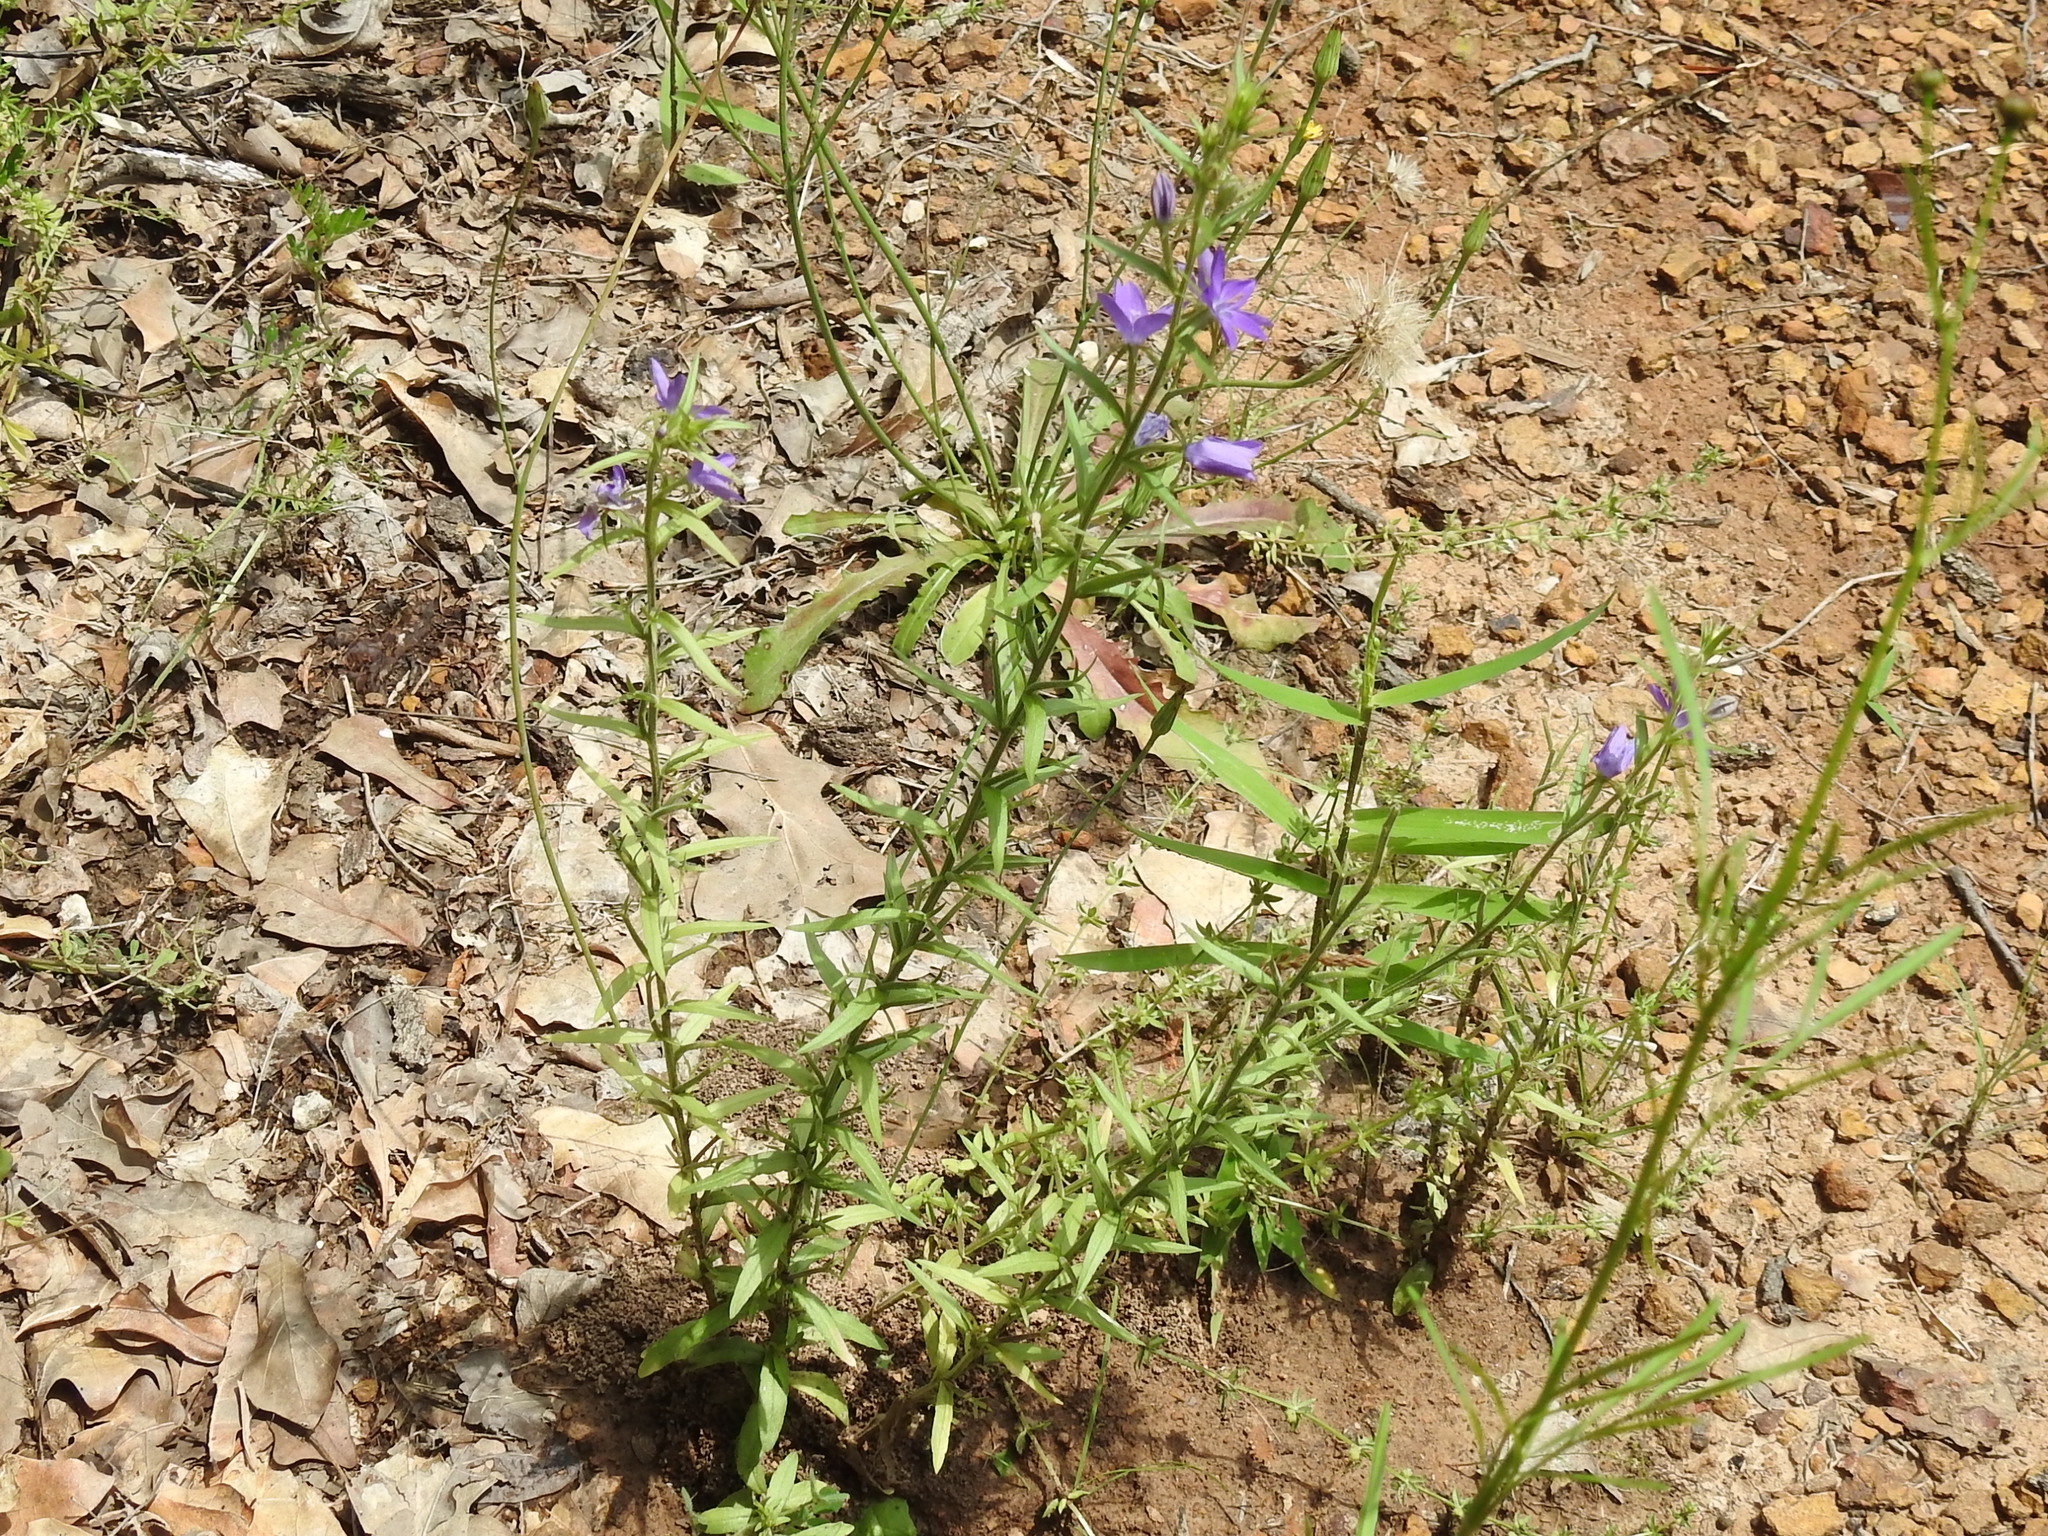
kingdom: Plantae
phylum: Tracheophyta
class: Magnoliopsida
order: Asterales
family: Campanulaceae
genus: Triodanis
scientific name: Triodanis leptocarpa
